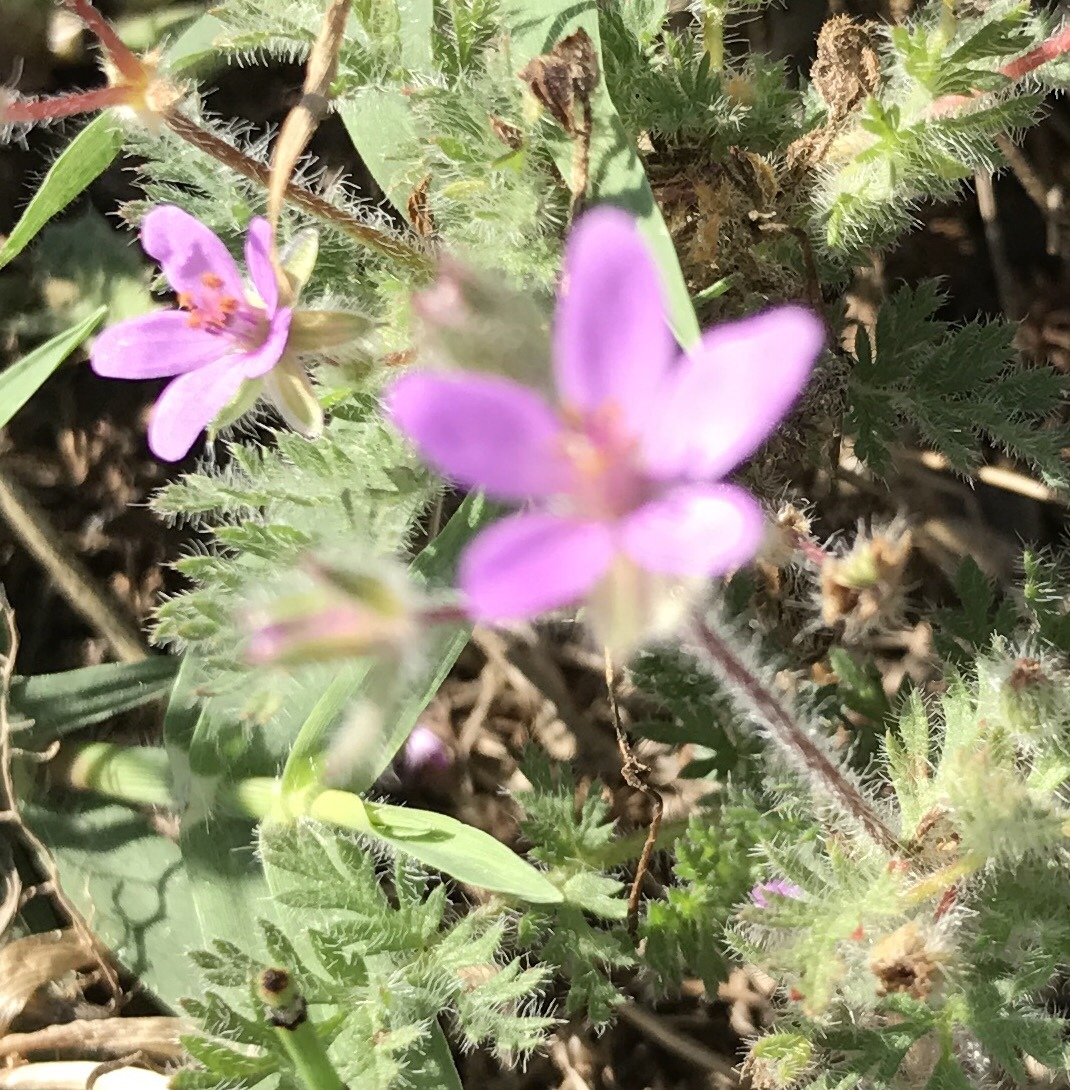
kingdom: Plantae
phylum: Tracheophyta
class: Magnoliopsida
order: Geraniales
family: Geraniaceae
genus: Erodium
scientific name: Erodium cicutarium
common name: Common stork's-bill
